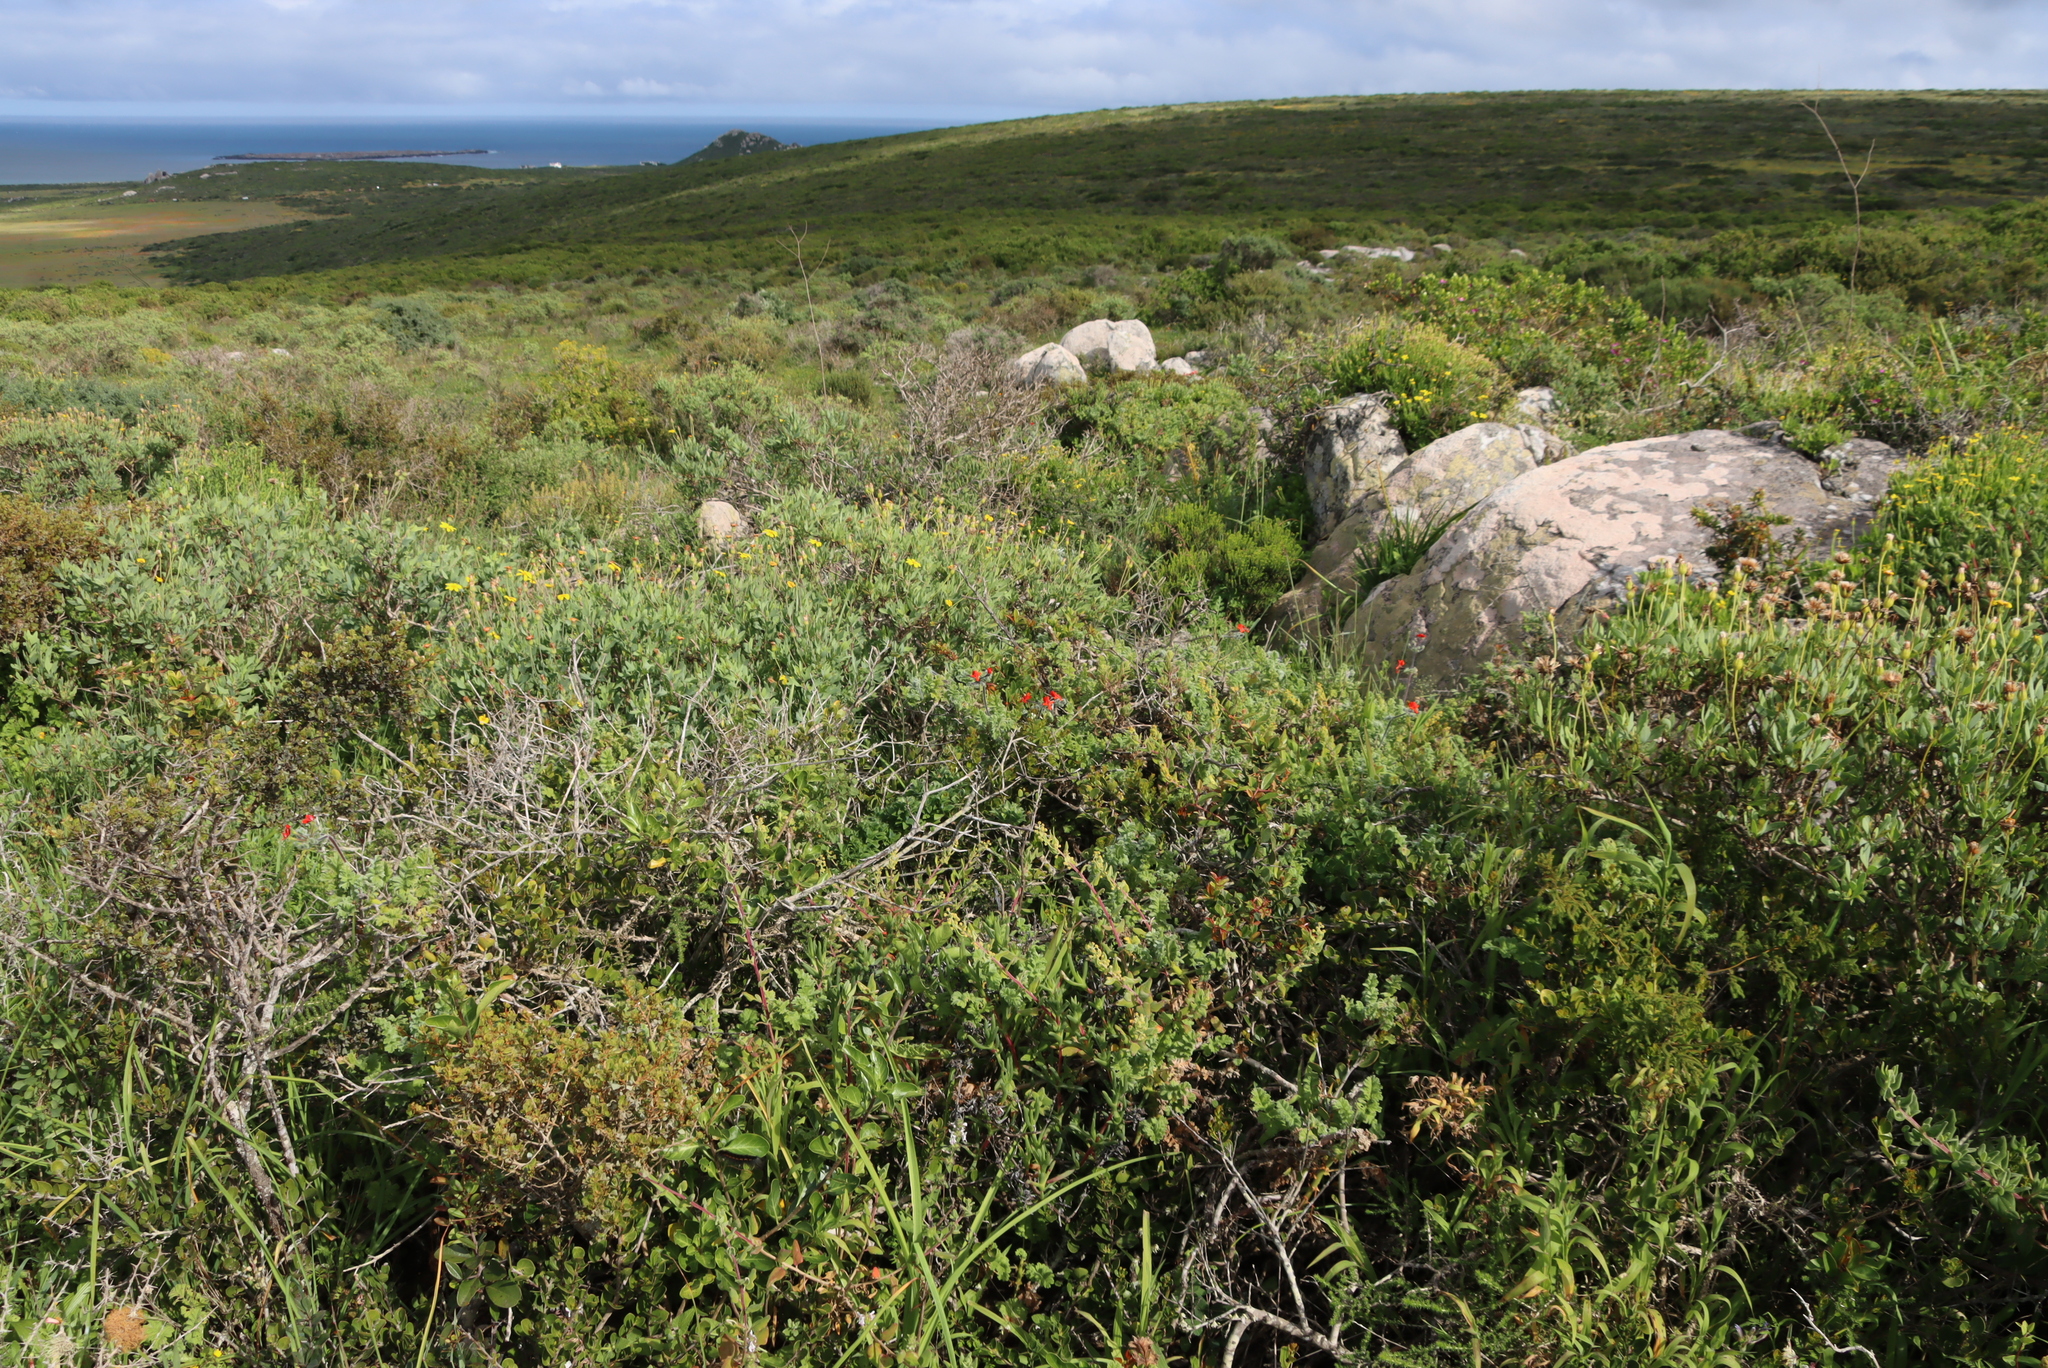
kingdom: Plantae
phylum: Tracheophyta
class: Magnoliopsida
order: Geraniales
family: Geraniaceae
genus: Pelargonium
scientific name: Pelargonium fulgidum
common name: Celandine-leaf pelargonium
